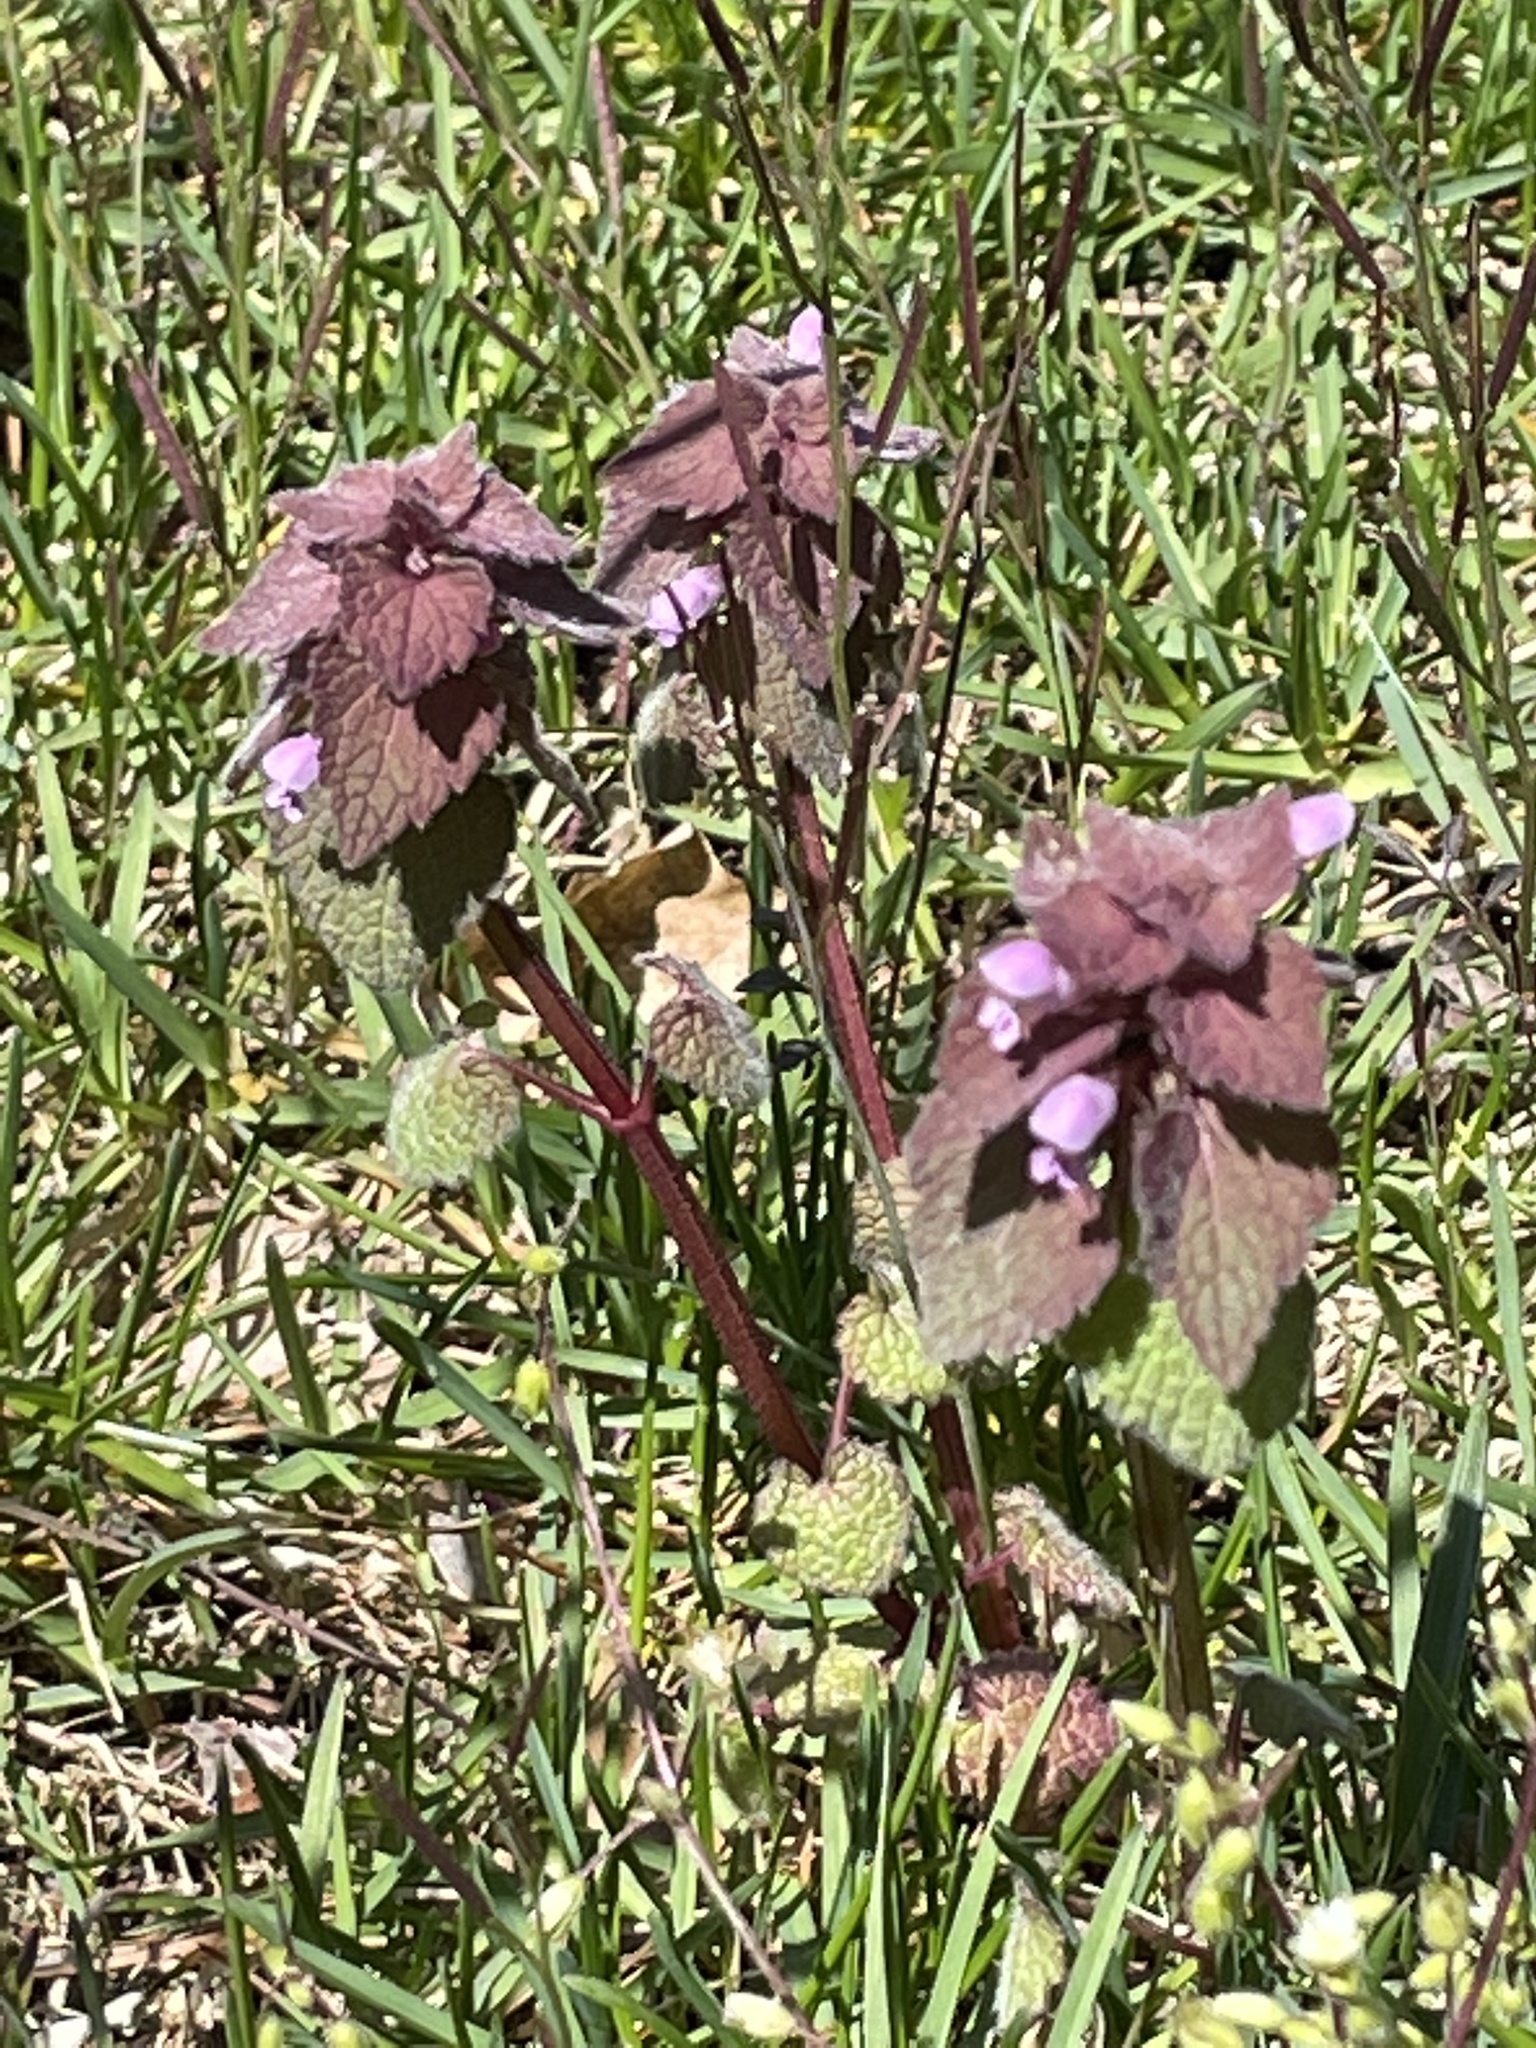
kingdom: Plantae
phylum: Tracheophyta
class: Magnoliopsida
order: Lamiales
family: Lamiaceae
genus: Lamium
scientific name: Lamium purpureum
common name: Red dead-nettle
